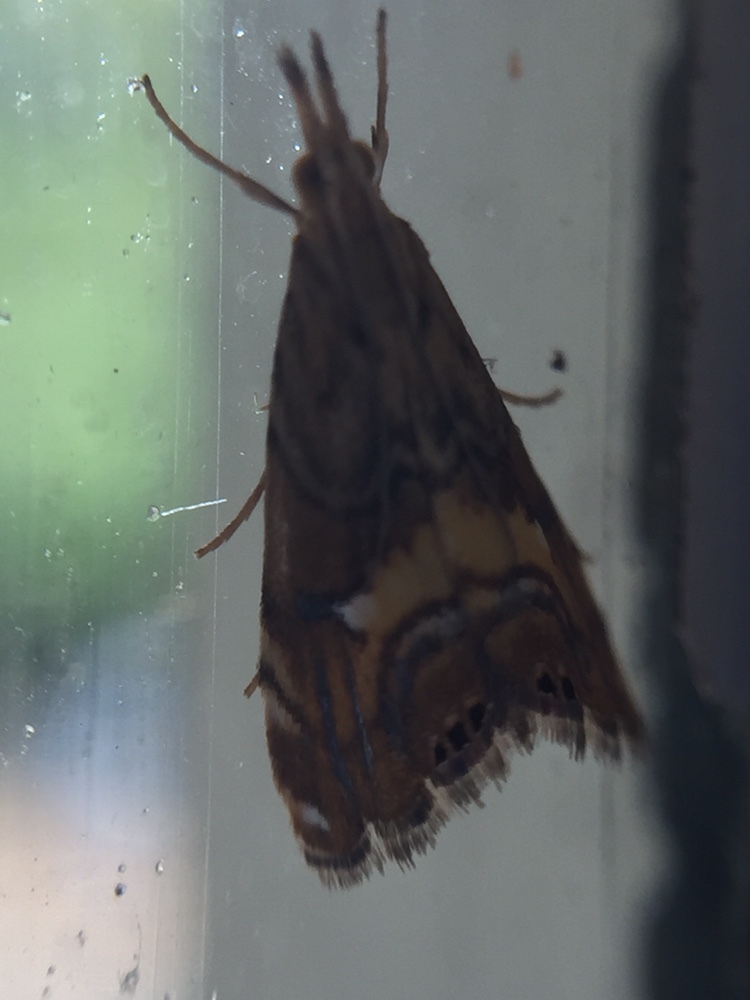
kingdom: Animalia
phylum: Arthropoda
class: Insecta
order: Lepidoptera
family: Crambidae
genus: Glaucocharis
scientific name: Glaucocharis chrysochyta
